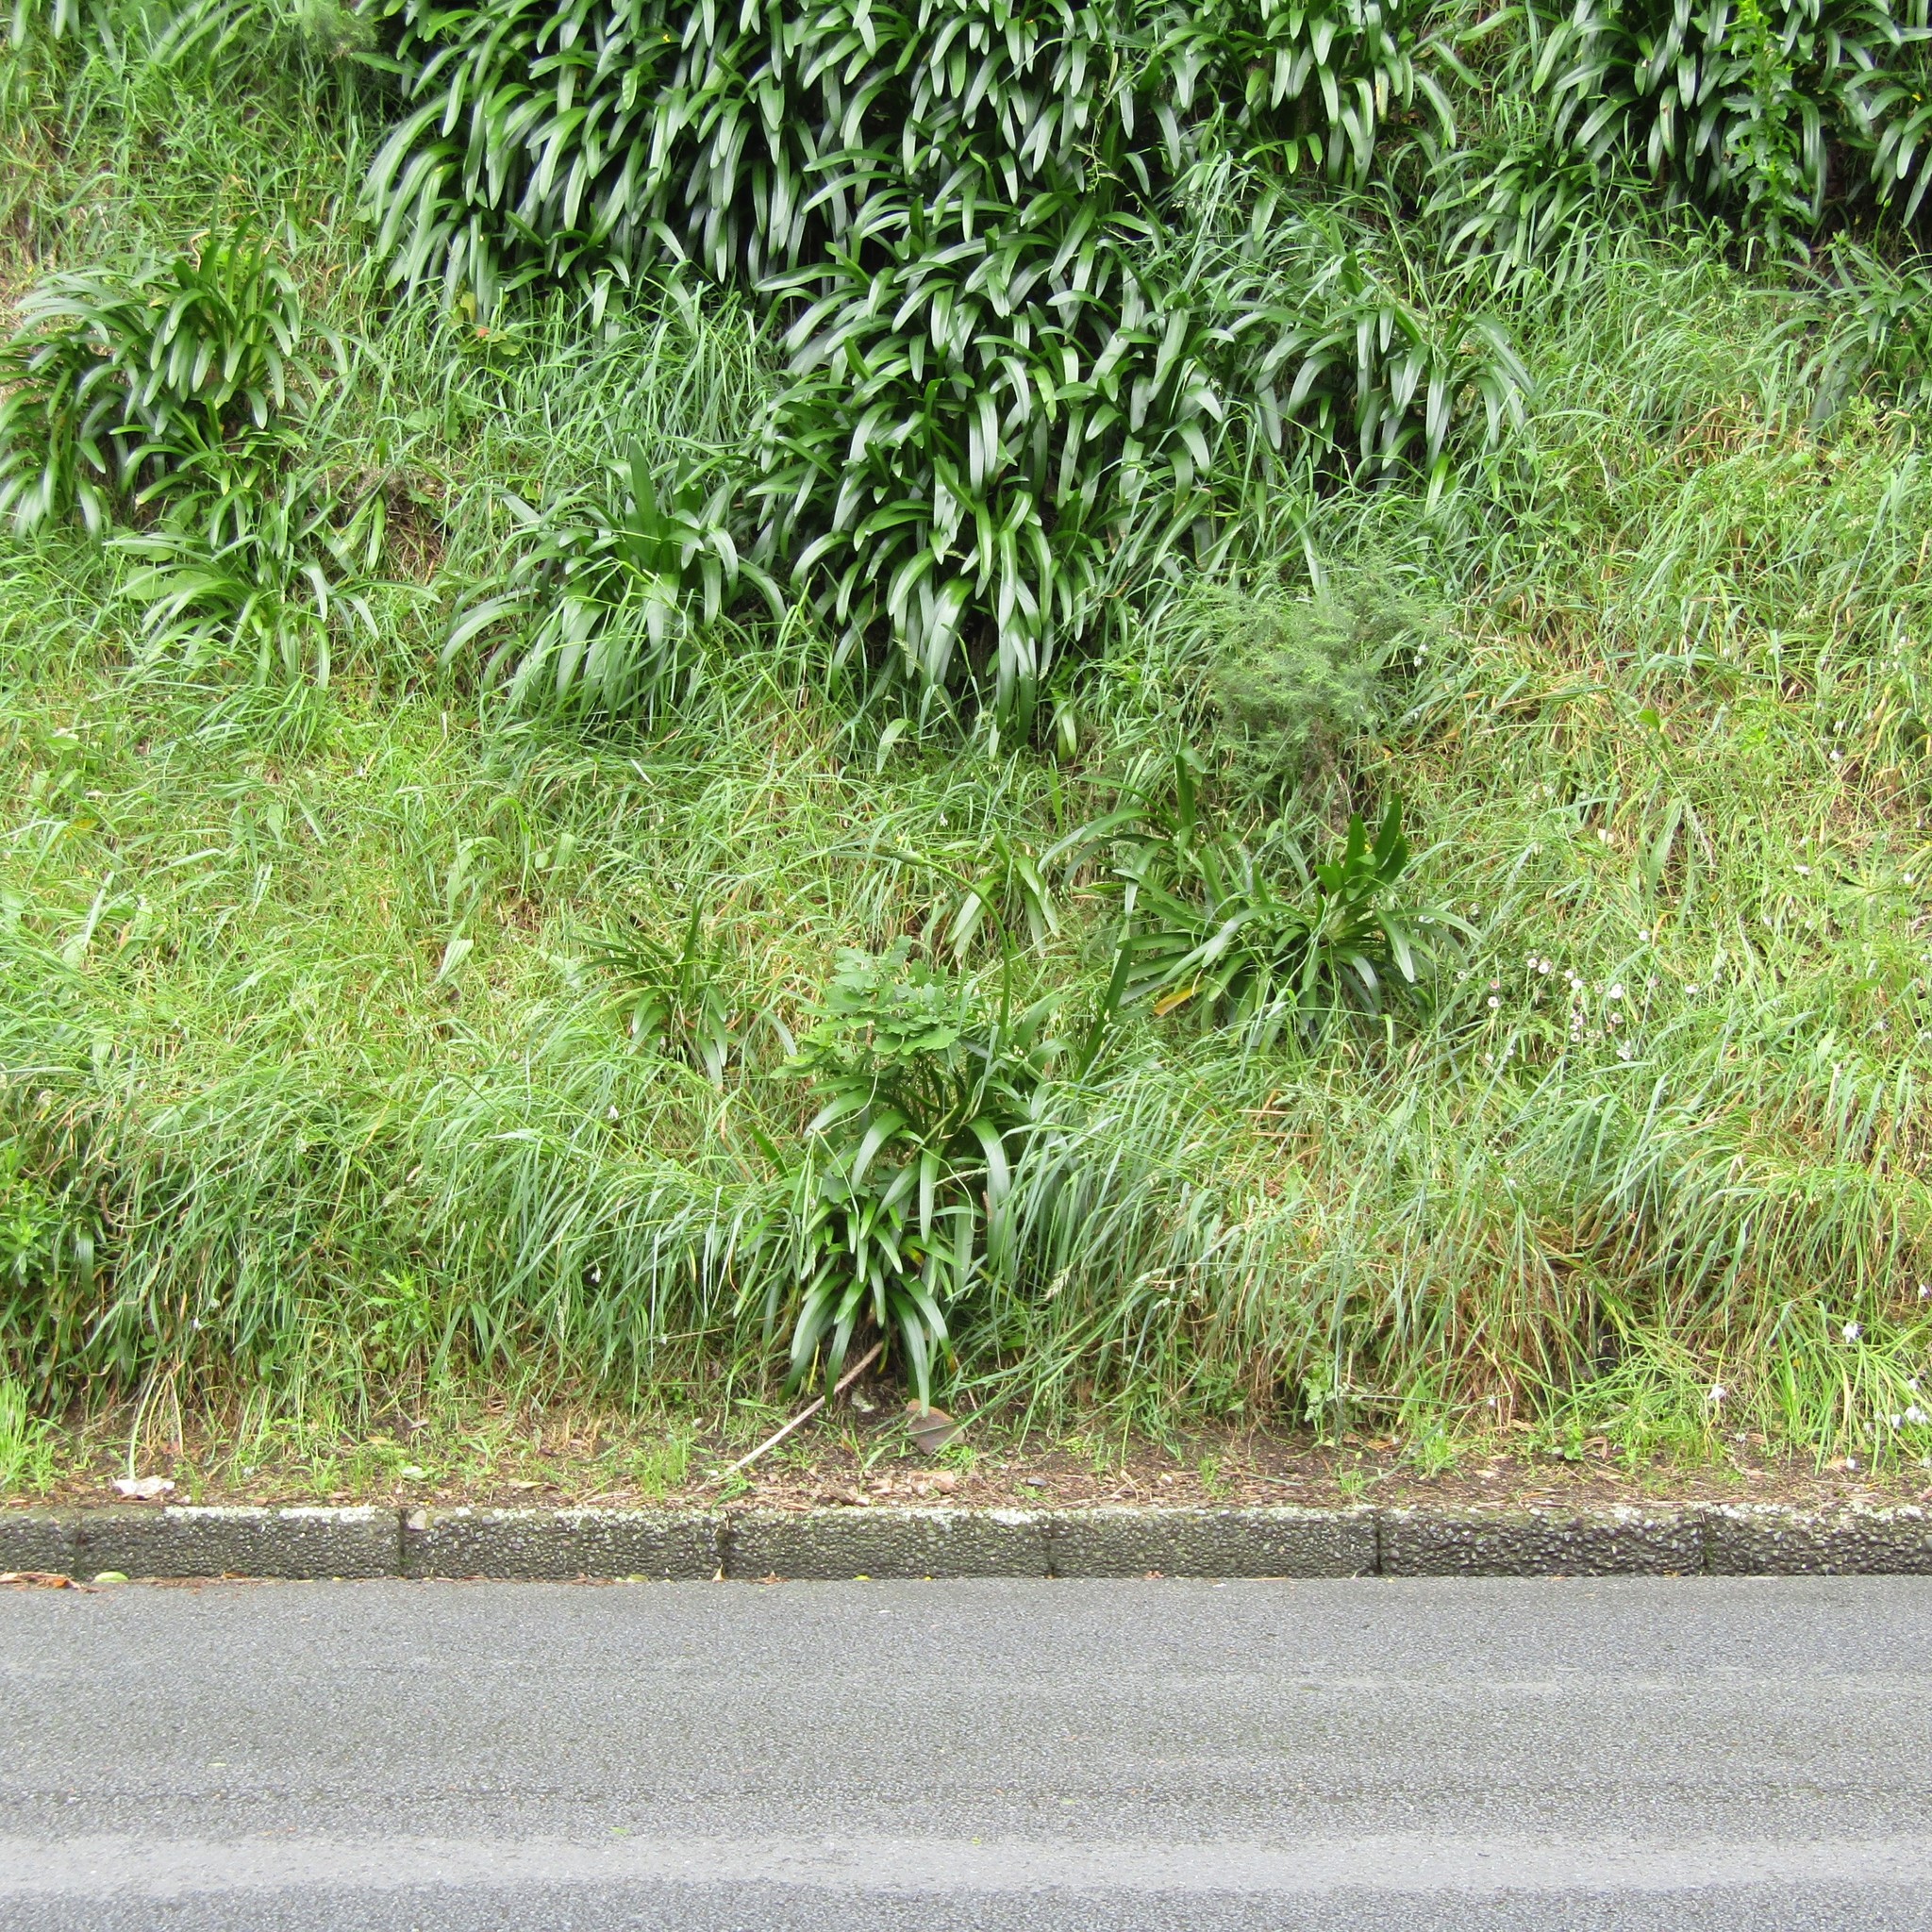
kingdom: Plantae
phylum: Tracheophyta
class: Magnoliopsida
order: Fagales
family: Fagaceae
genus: Quercus
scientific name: Quercus robur
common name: Pedunculate oak
